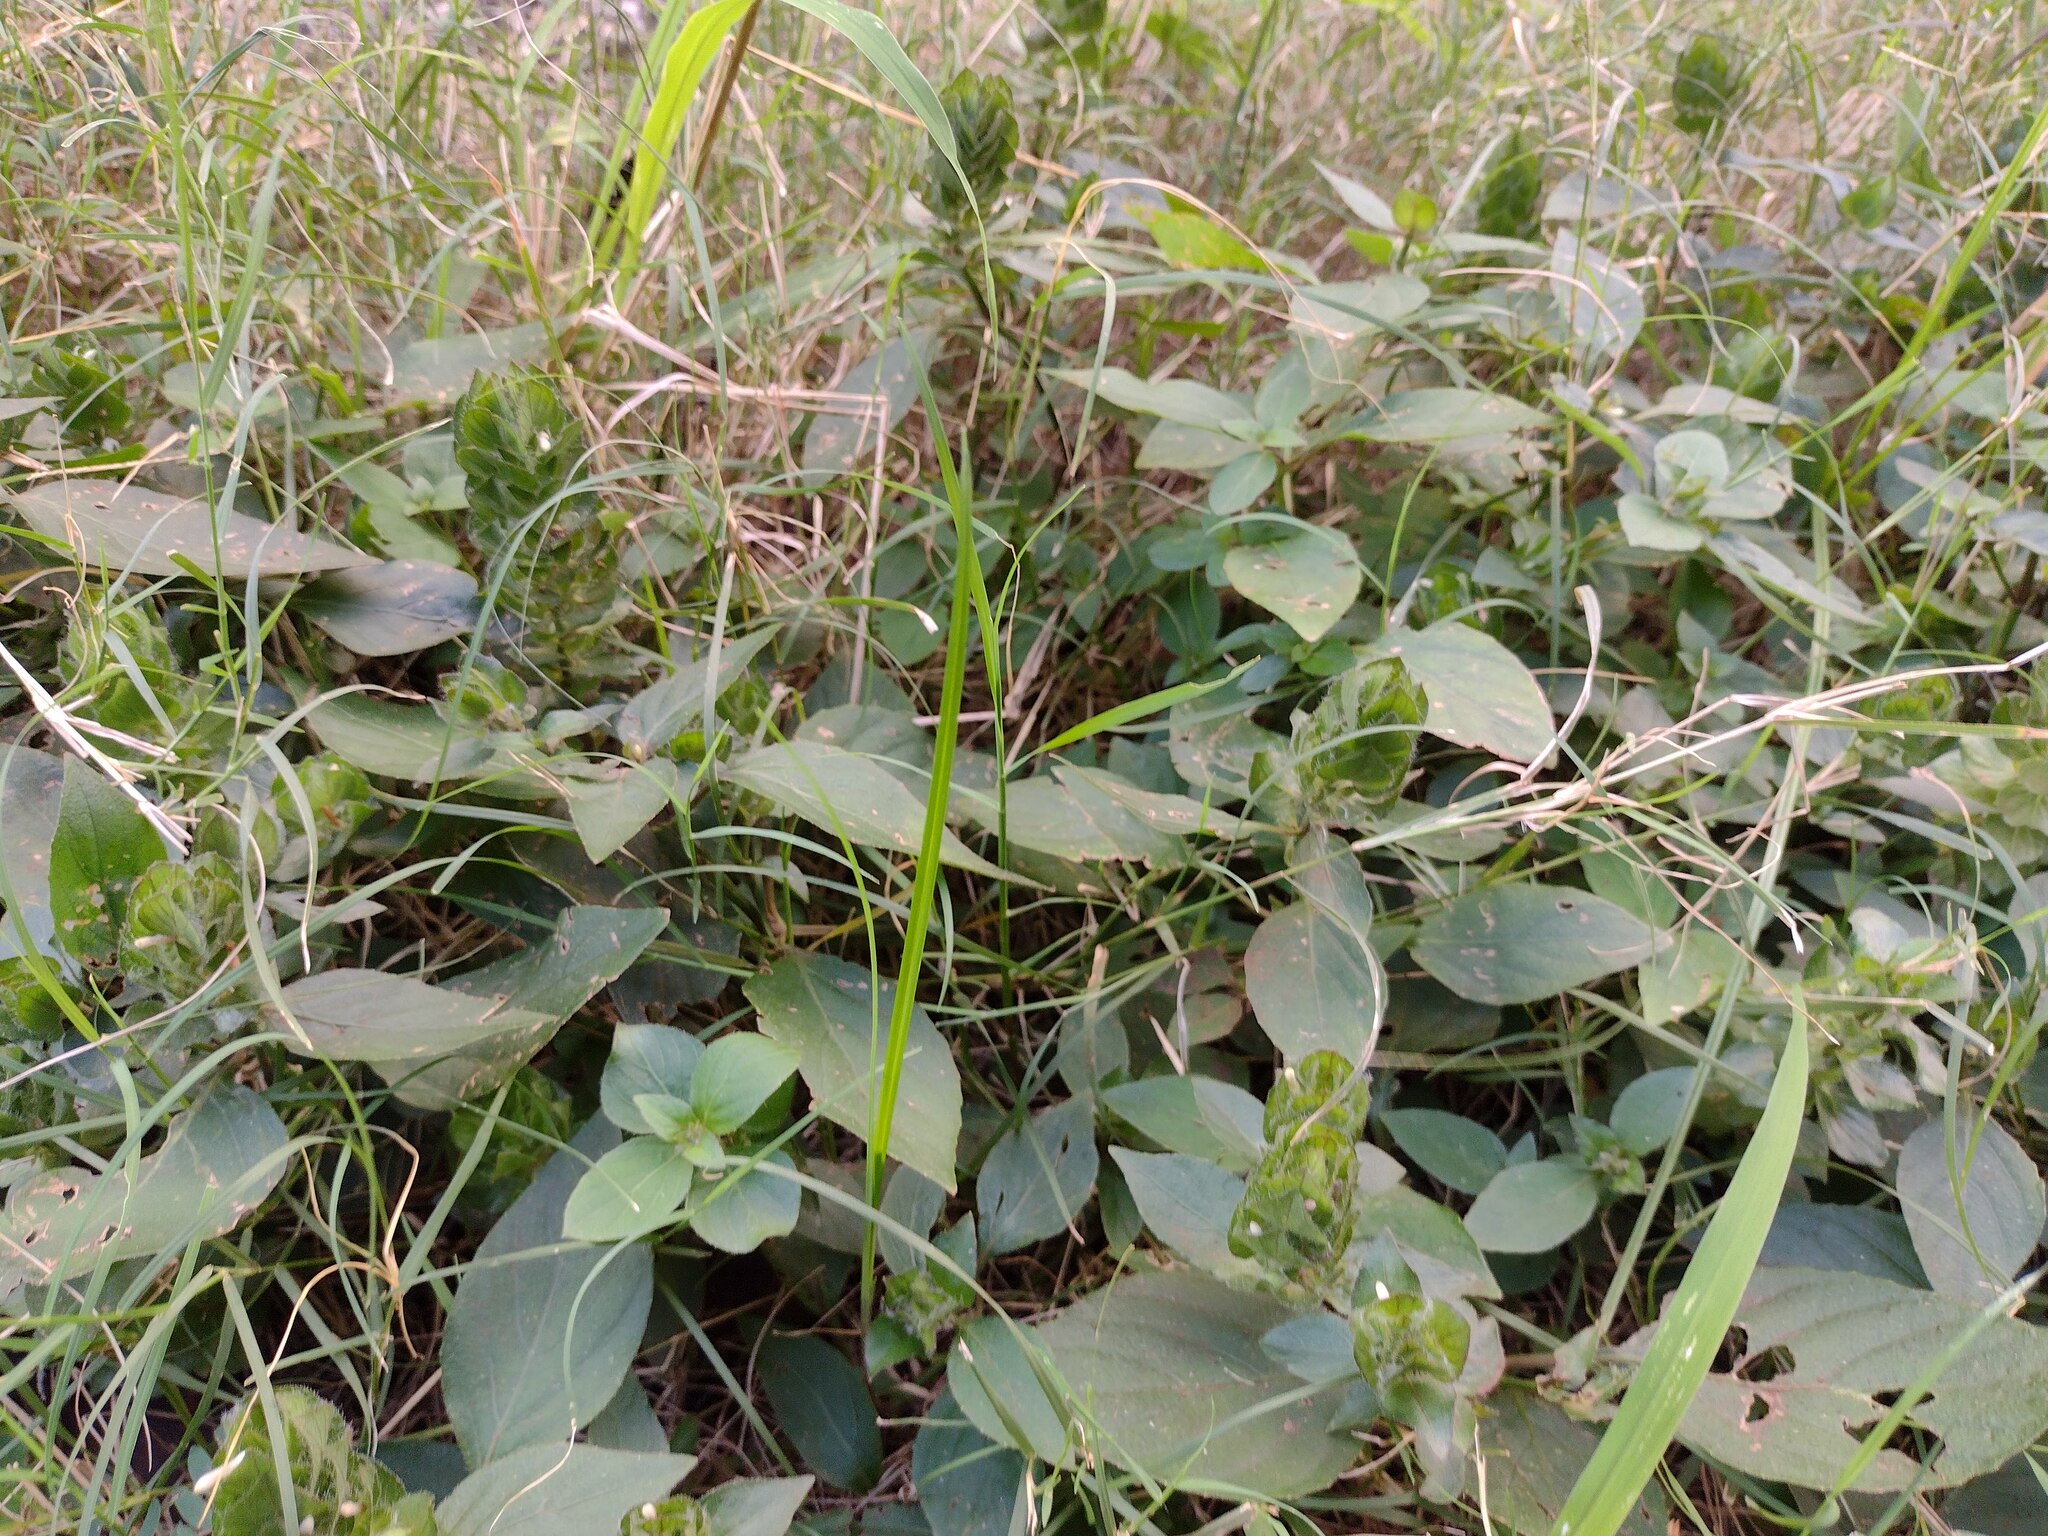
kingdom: Plantae
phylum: Tracheophyta
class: Magnoliopsida
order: Lamiales
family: Acanthaceae
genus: Ruellia
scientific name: Ruellia blechum
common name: Browne's blechum
